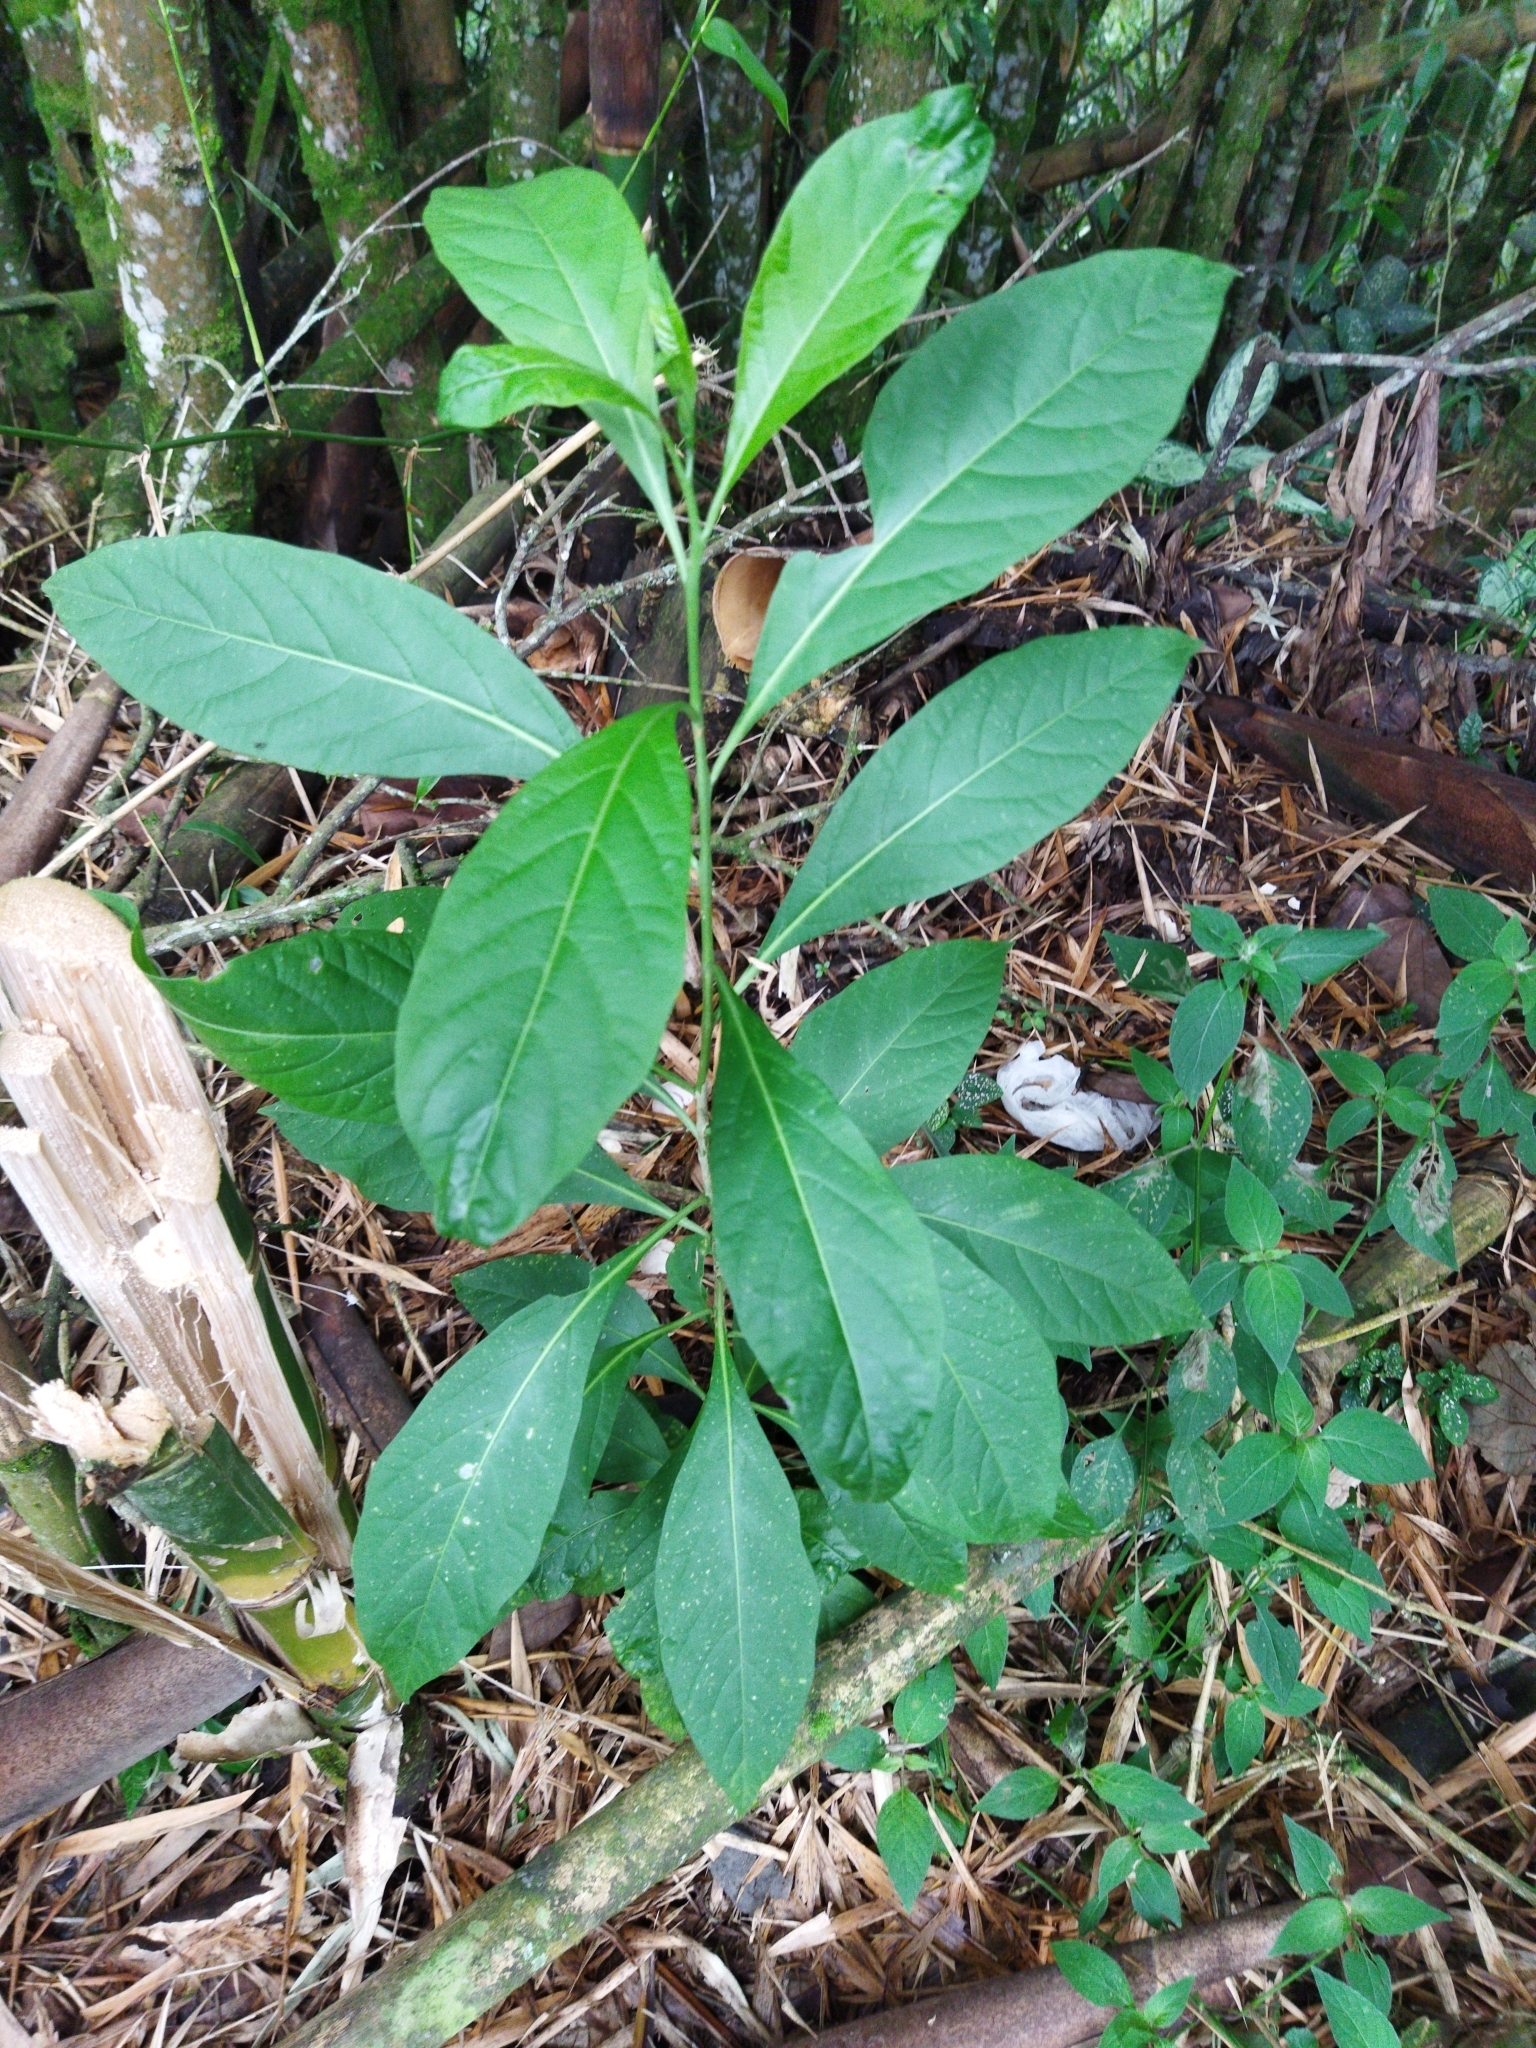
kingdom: Plantae
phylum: Tracheophyta
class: Magnoliopsida
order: Solanales
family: Solanaceae
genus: Solanum
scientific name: Solanum aphyodendron
